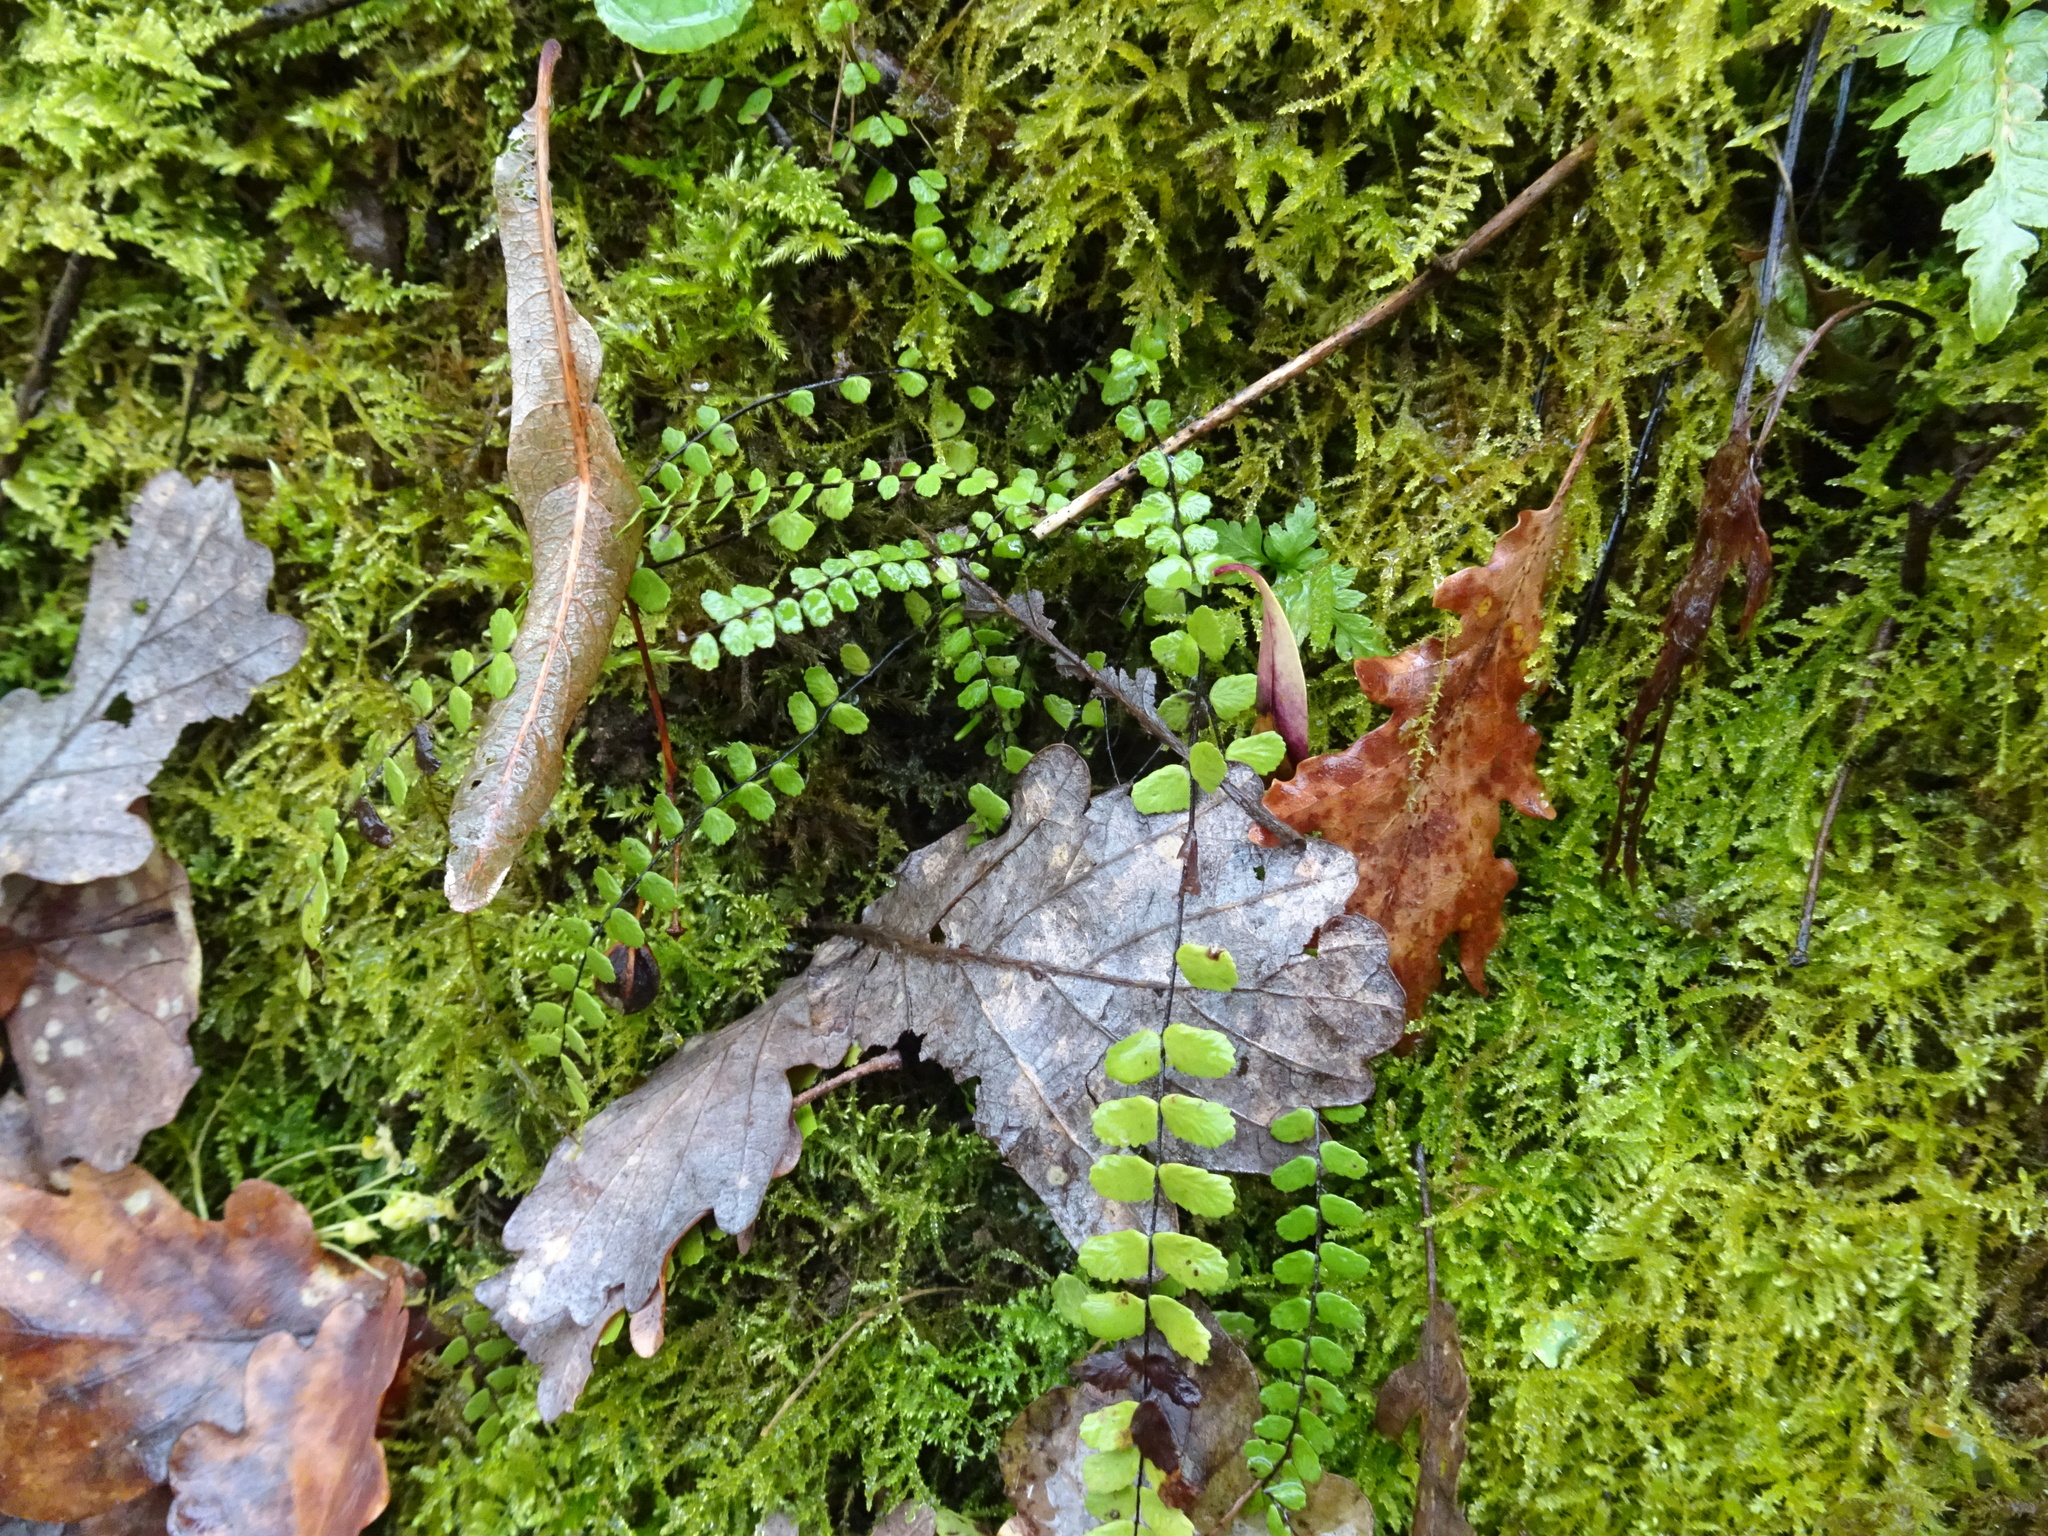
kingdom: Plantae
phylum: Tracheophyta
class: Polypodiopsida
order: Polypodiales
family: Aspleniaceae
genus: Asplenium
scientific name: Asplenium trichomanes
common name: Maidenhair spleenwort
